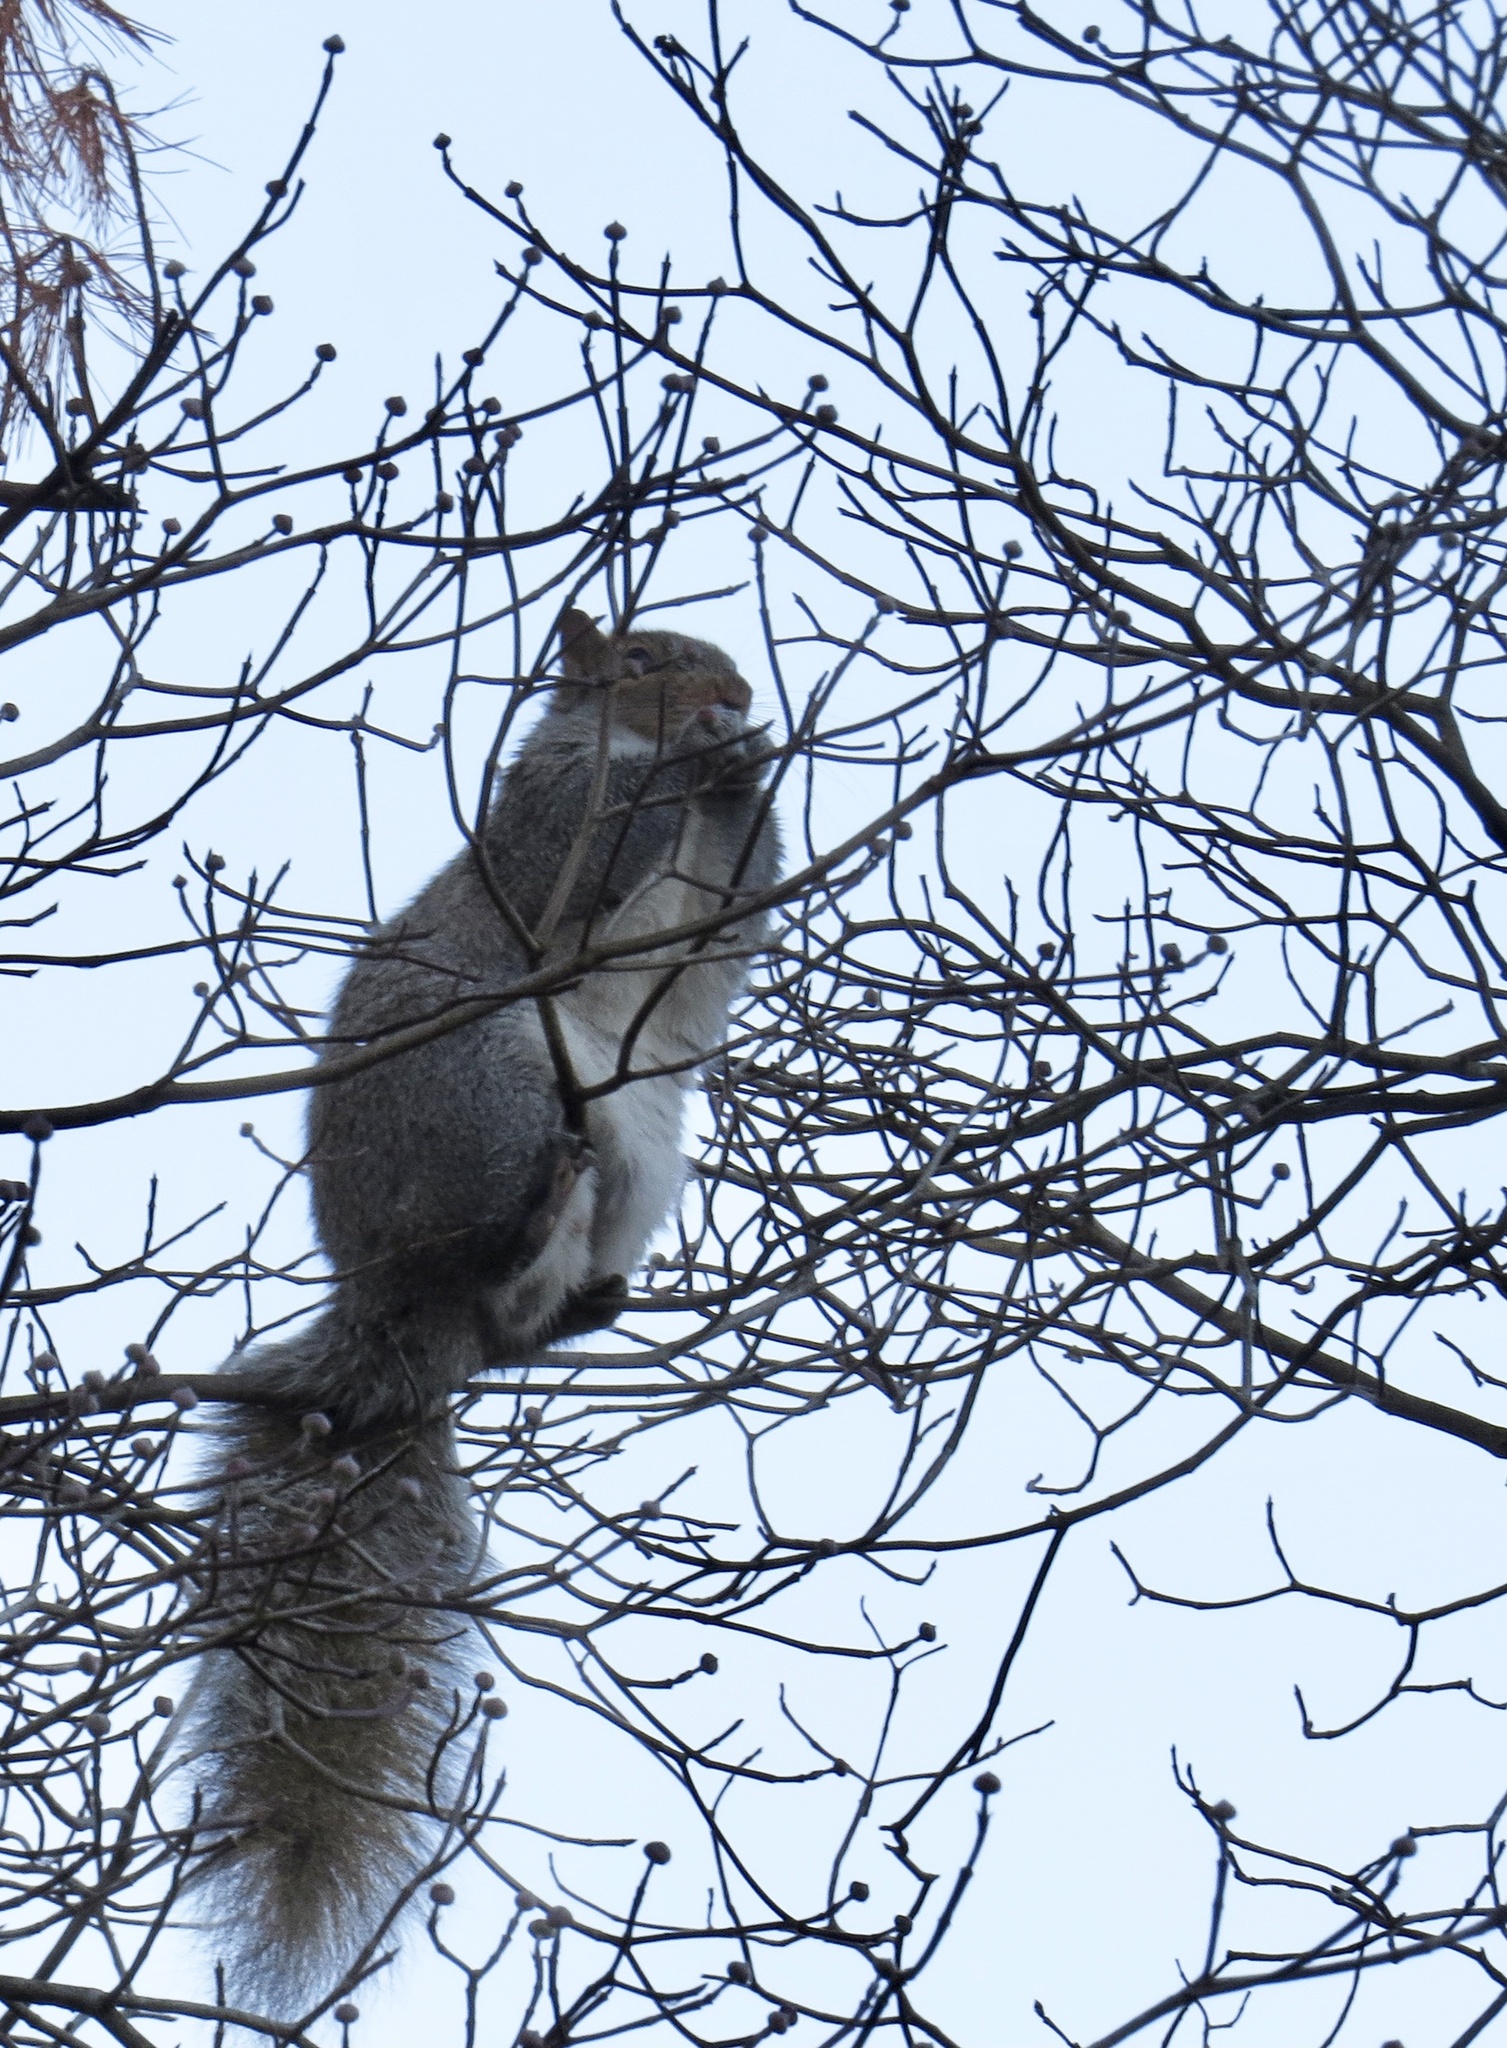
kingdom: Animalia
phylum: Chordata
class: Mammalia
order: Rodentia
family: Sciuridae
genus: Sciurus
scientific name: Sciurus carolinensis
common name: Eastern gray squirrel
